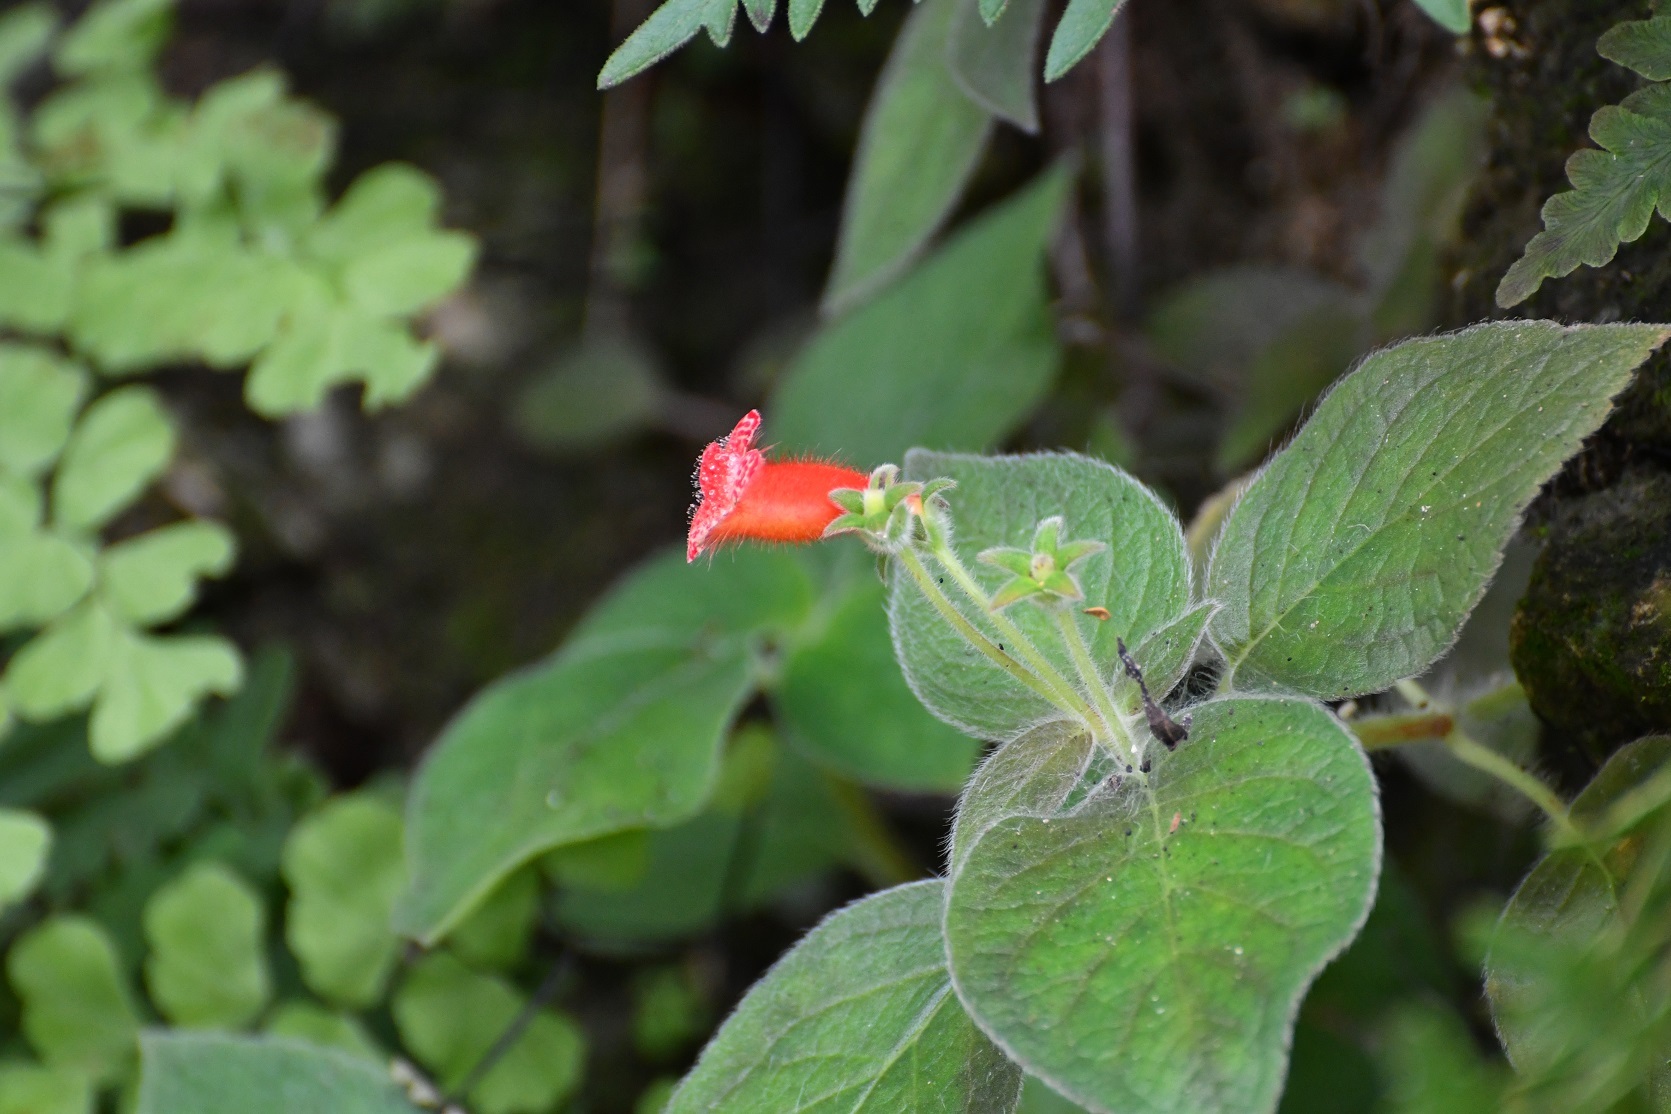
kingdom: Plantae
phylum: Tracheophyta
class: Magnoliopsida
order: Lamiales
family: Gesneriaceae
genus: Kohleria
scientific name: Kohleria rugata
